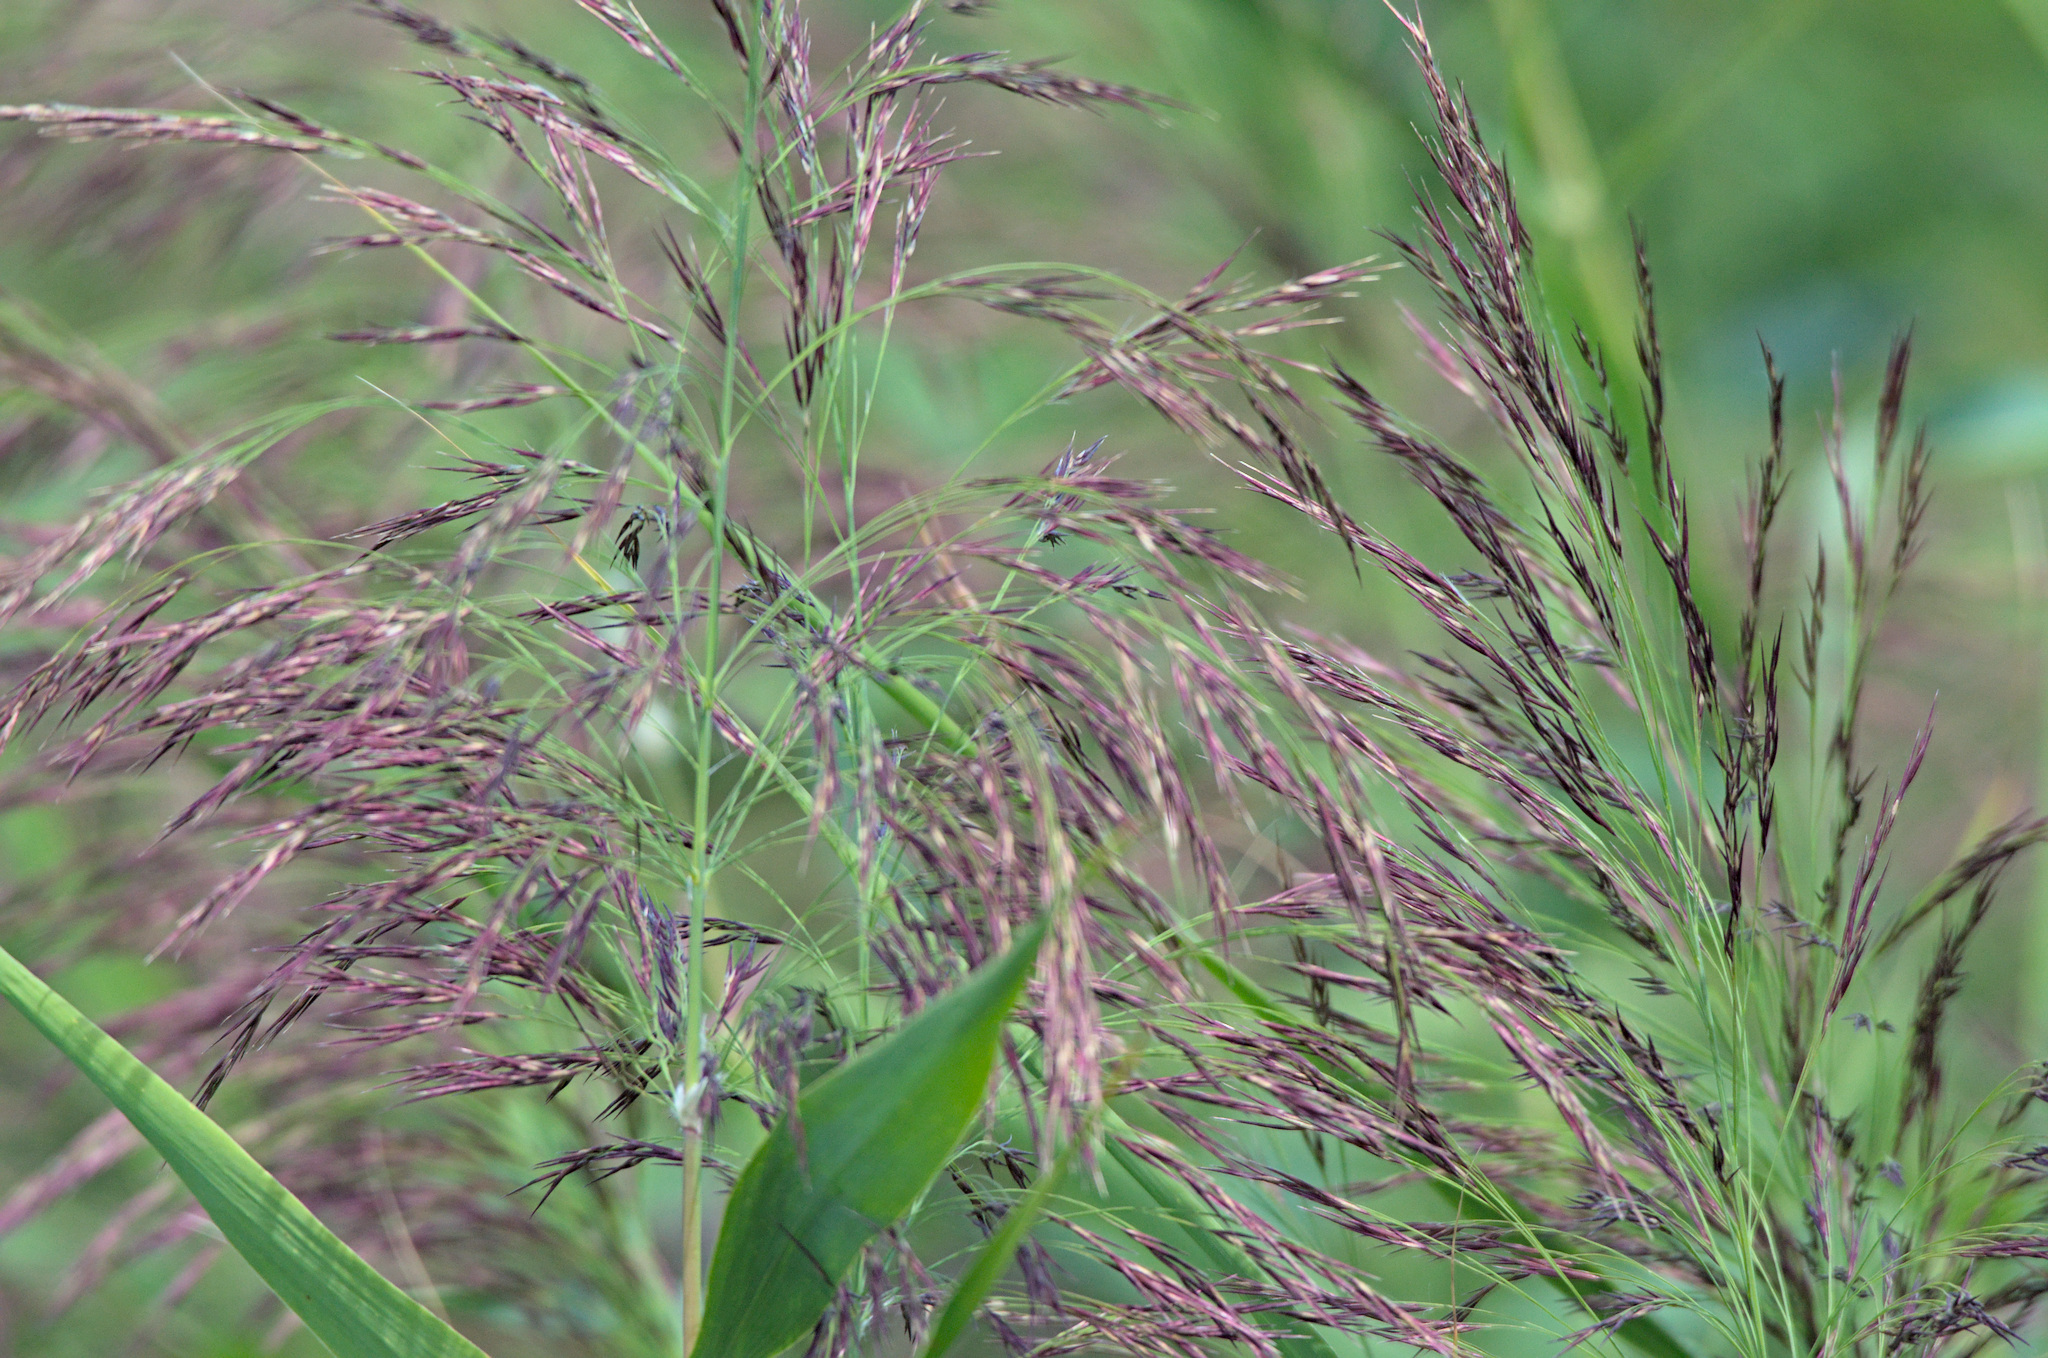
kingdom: Plantae
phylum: Tracheophyta
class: Liliopsida
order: Poales
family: Poaceae
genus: Phragmites
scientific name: Phragmites australis
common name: Common reed
